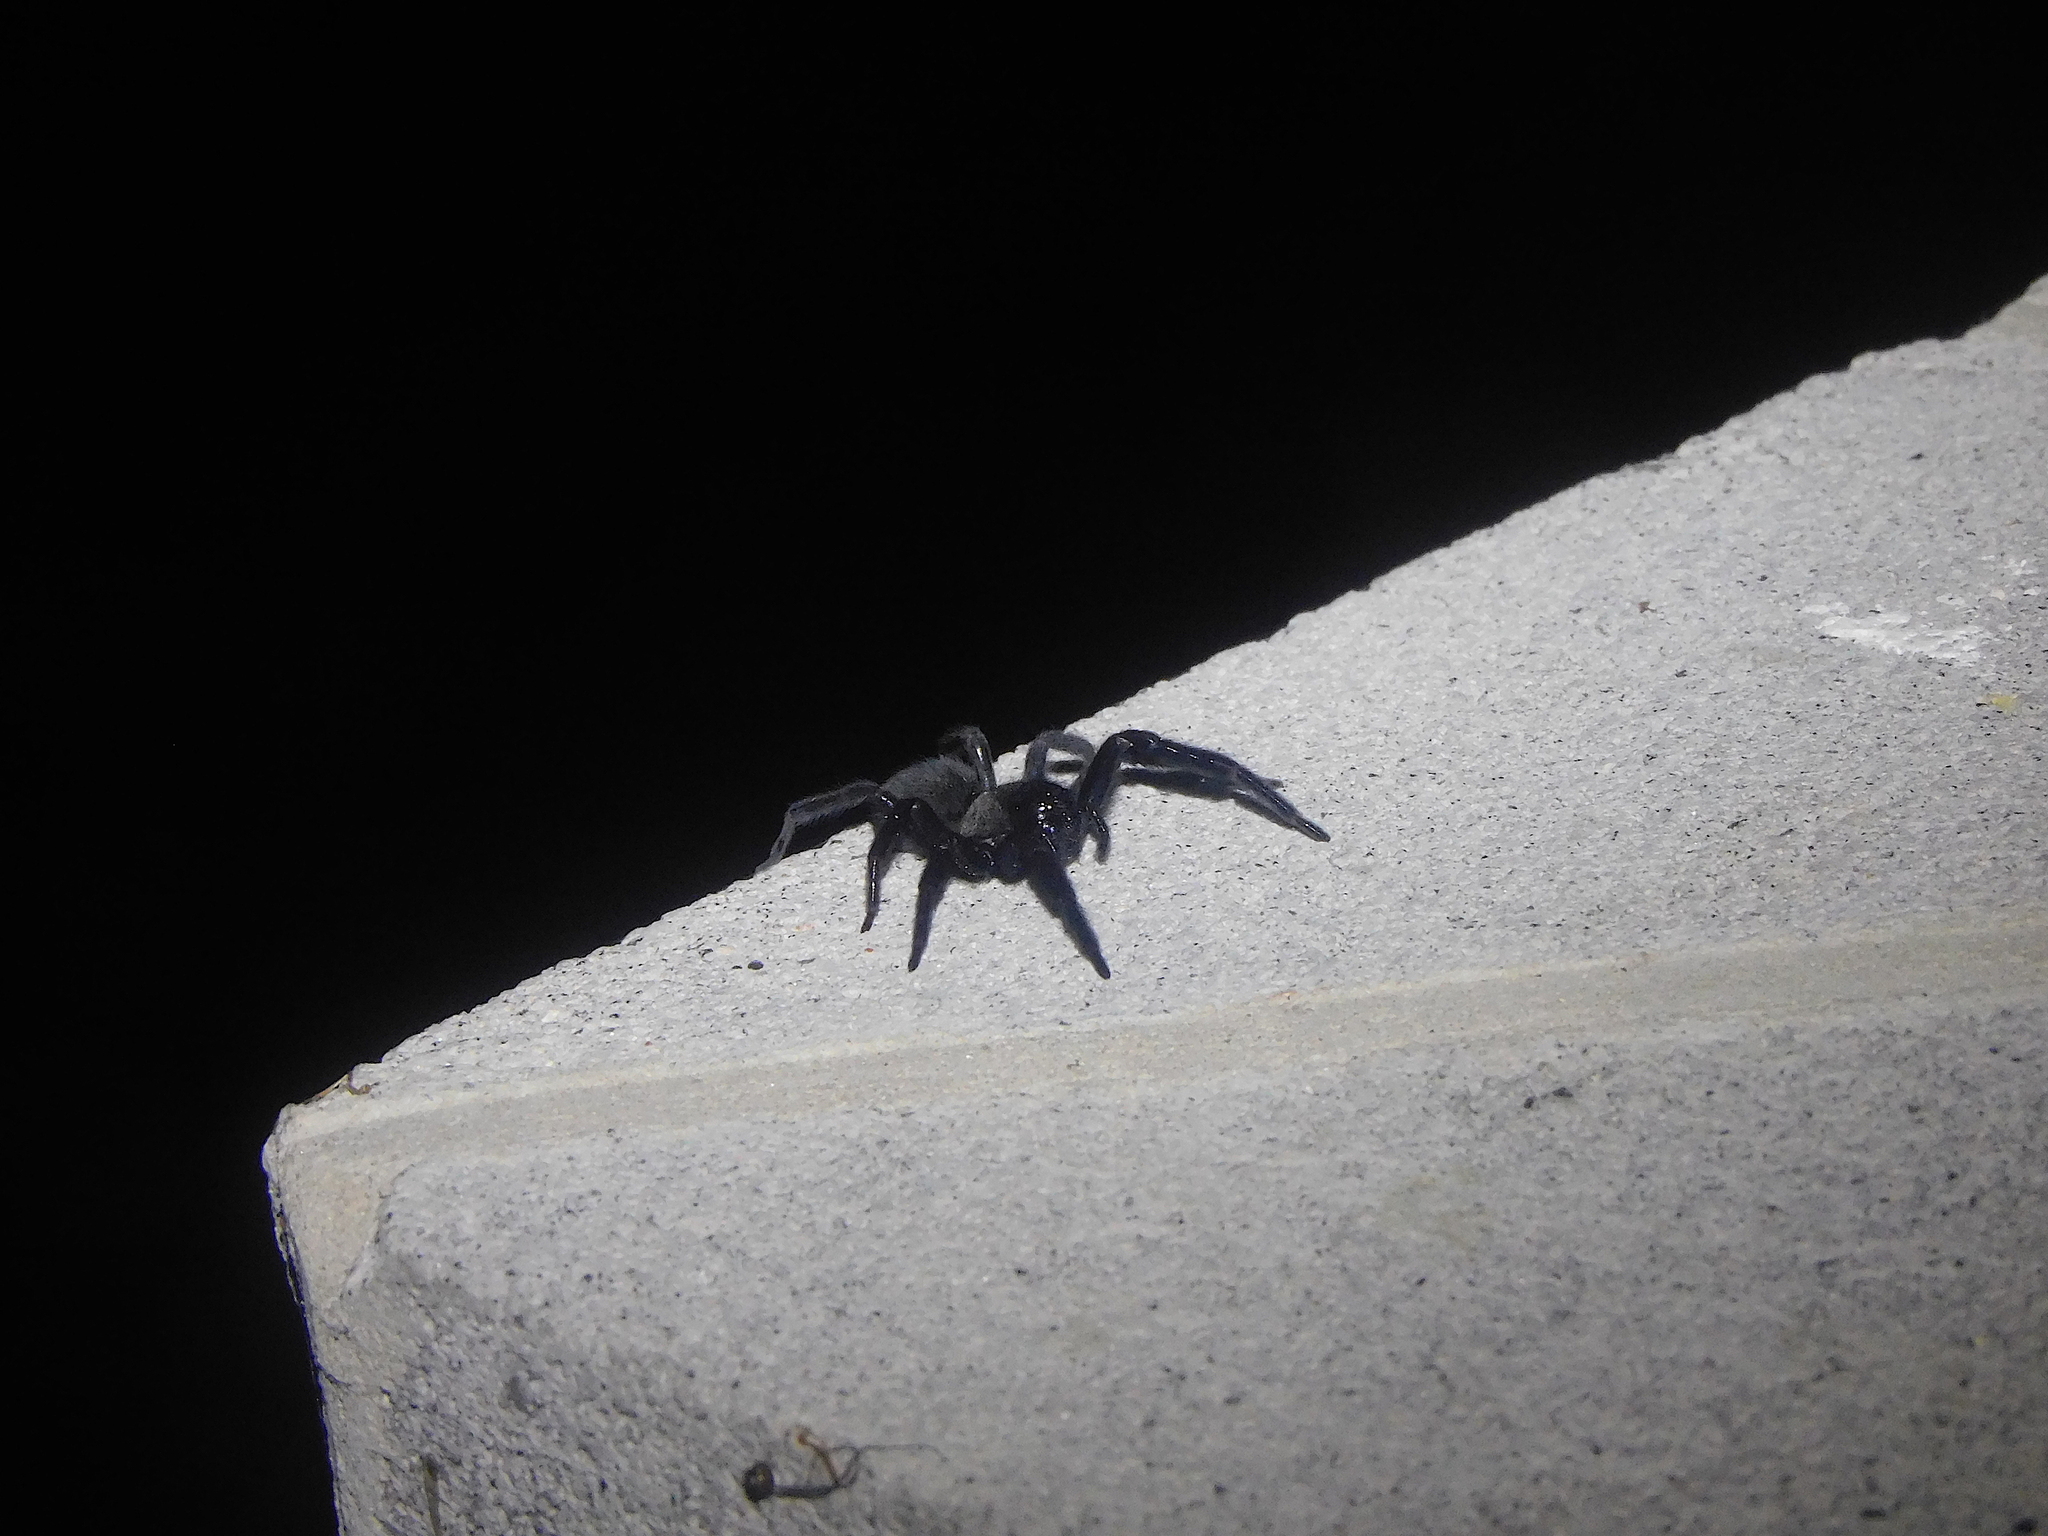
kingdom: Animalia
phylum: Arthropoda
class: Arachnida
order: Araneae
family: Desidae
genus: Badumna
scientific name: Badumna insignis
